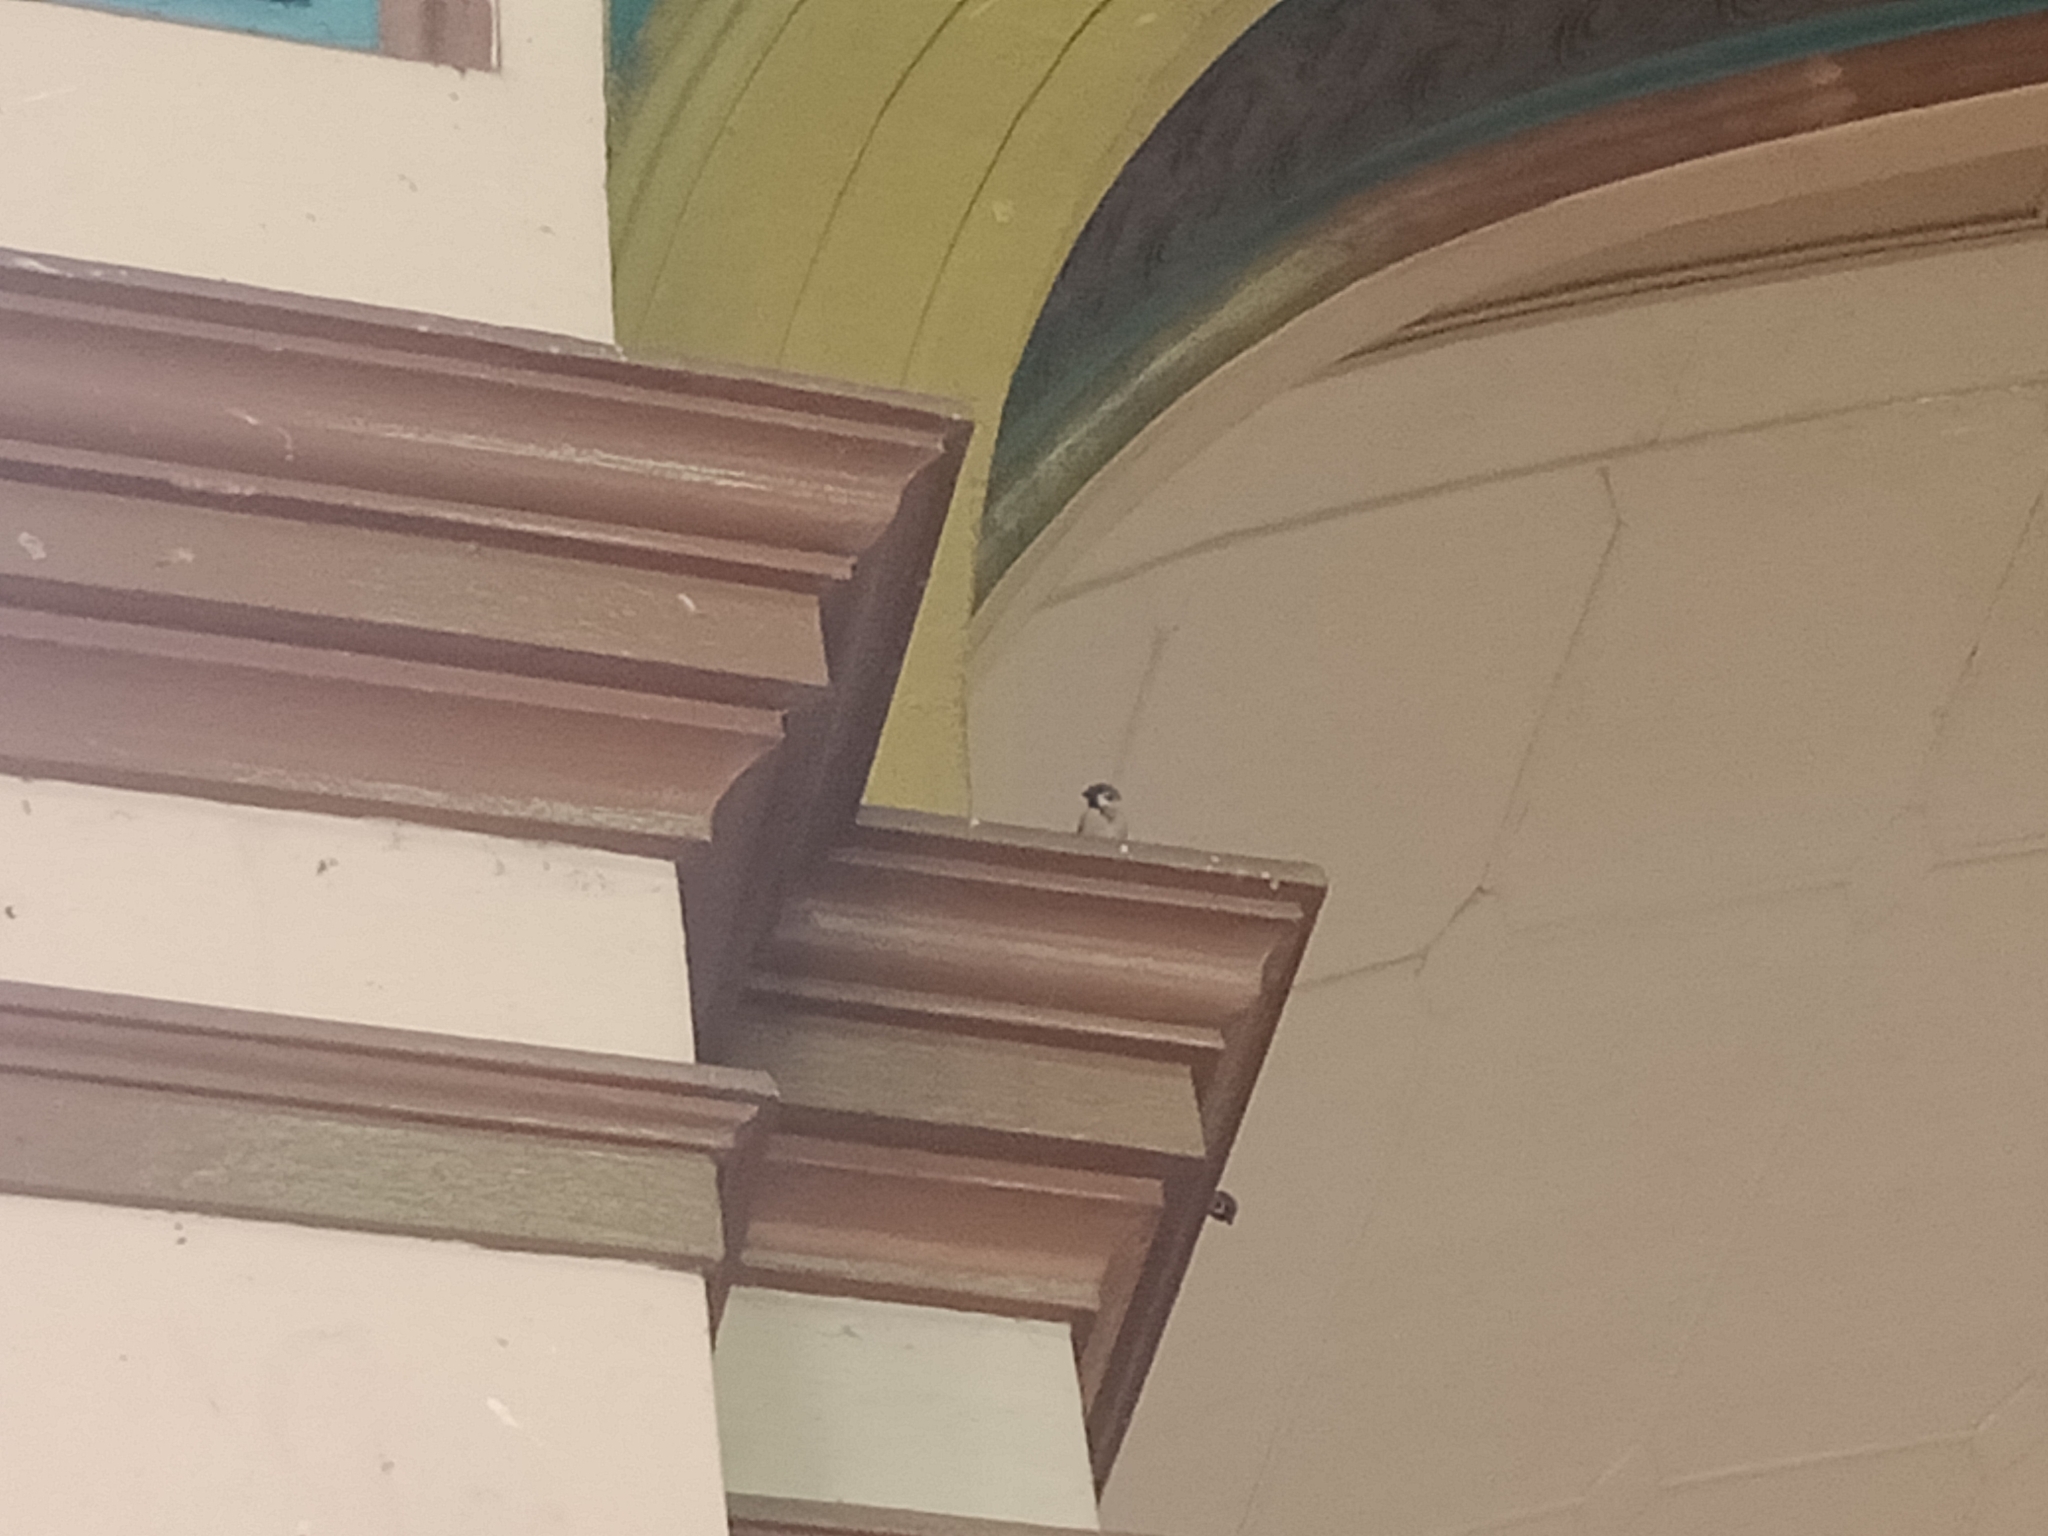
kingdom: Animalia
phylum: Chordata
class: Aves
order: Passeriformes
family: Passeridae
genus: Passer
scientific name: Passer montanus
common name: Eurasian tree sparrow
